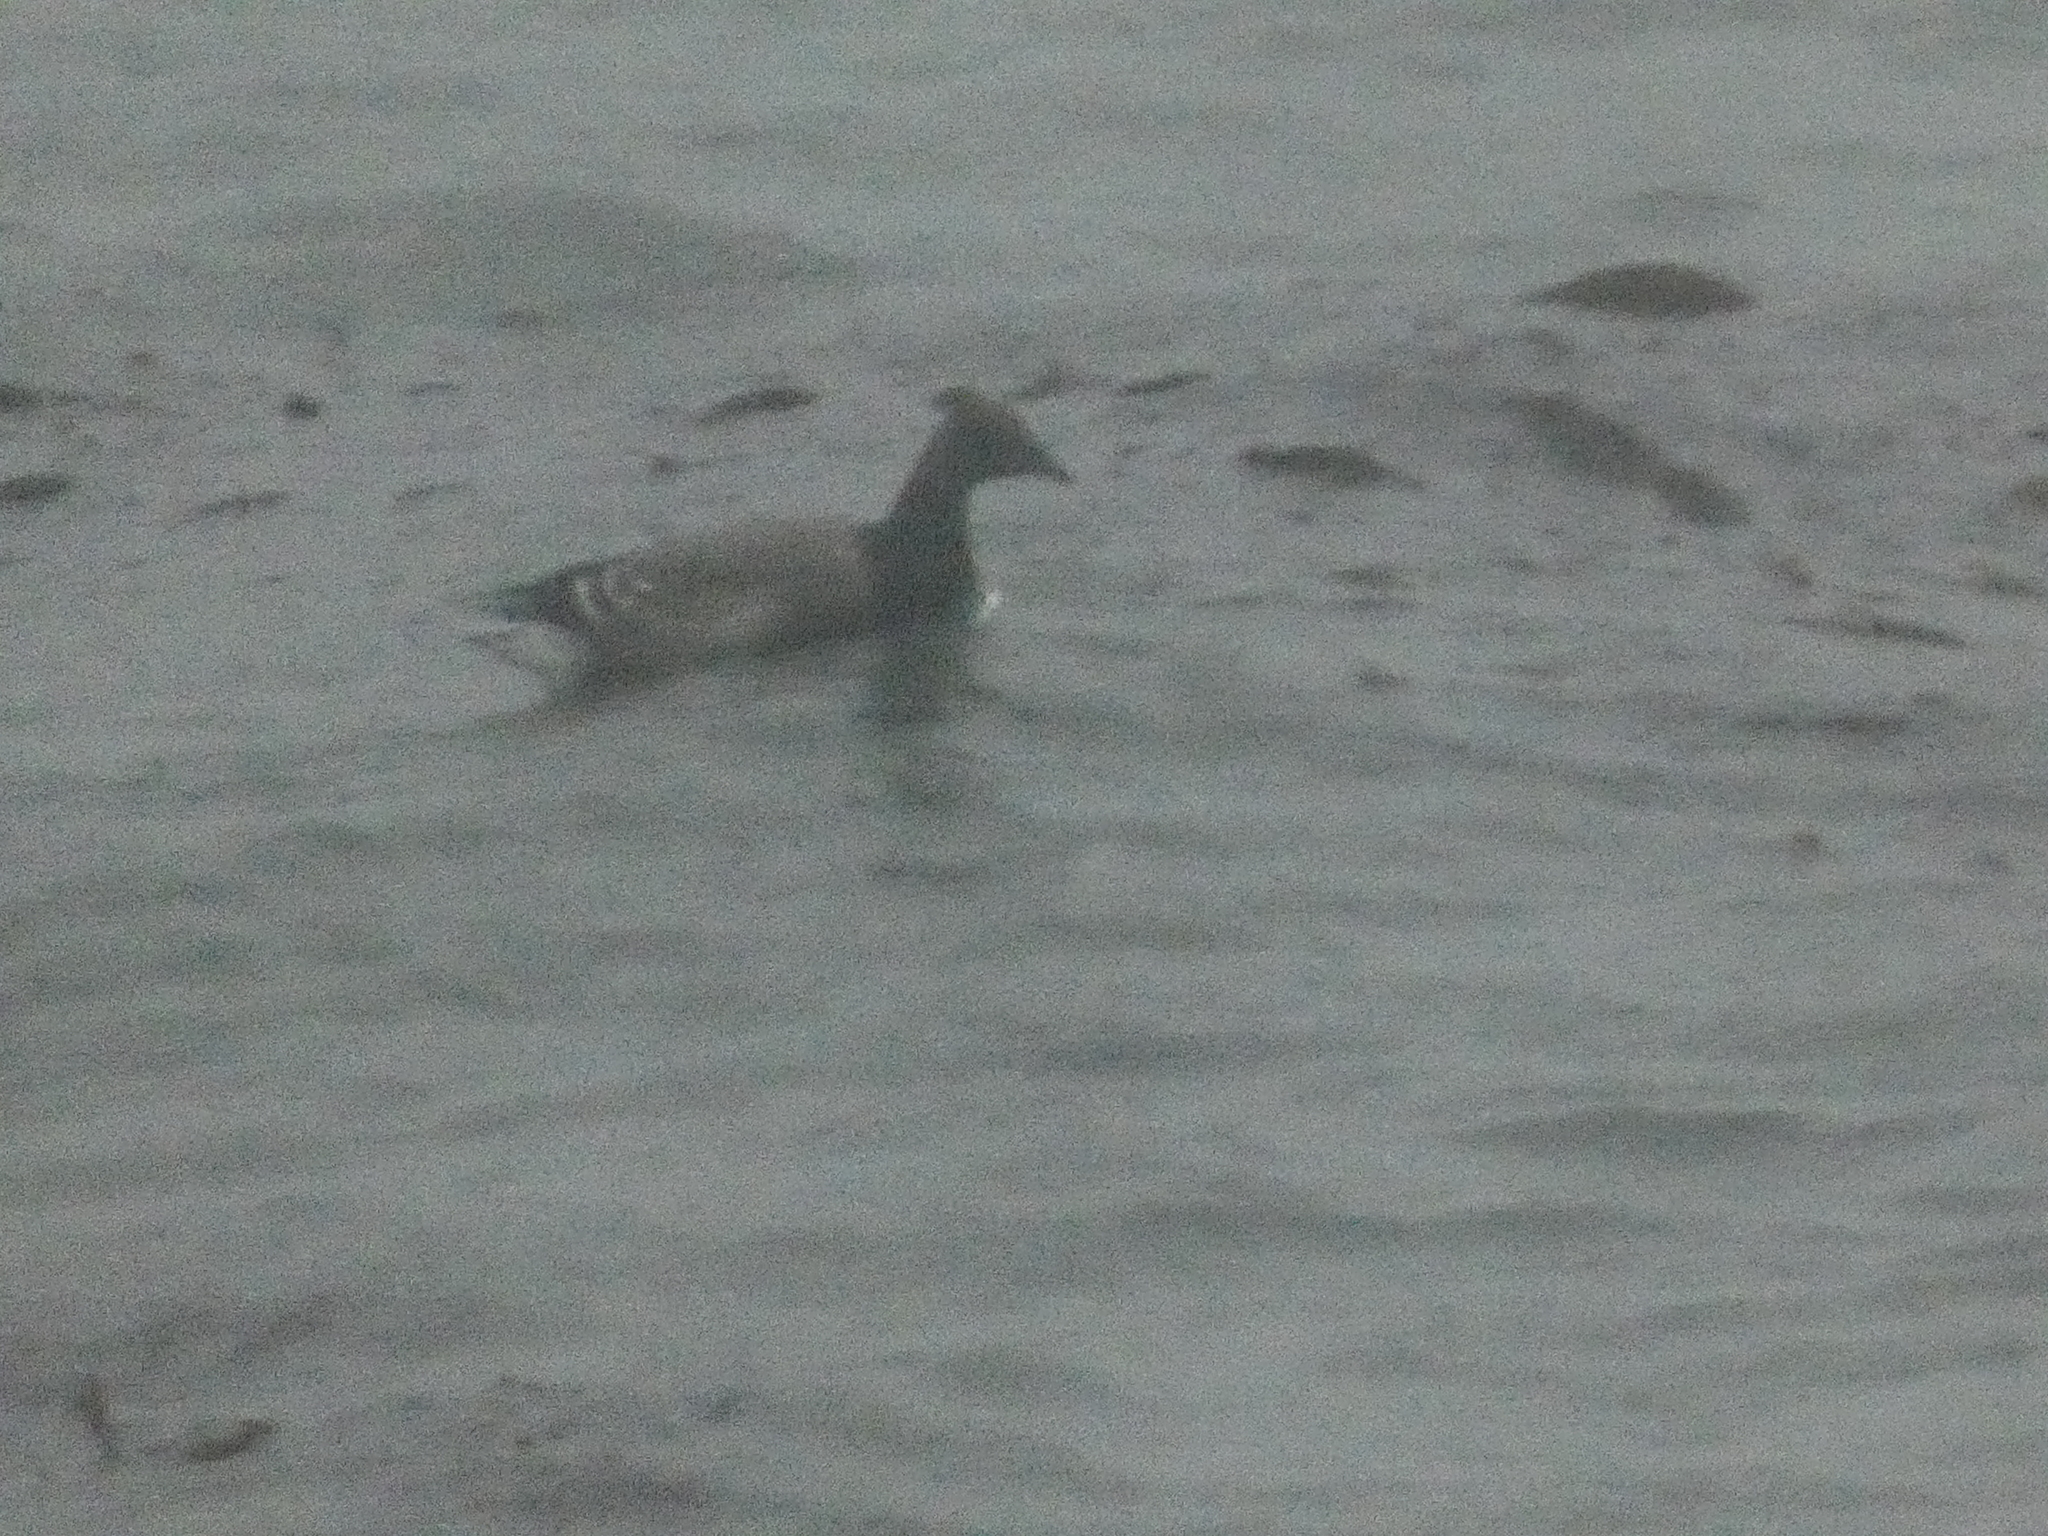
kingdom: Animalia
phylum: Chordata
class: Aves
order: Anseriformes
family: Anatidae
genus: Branta
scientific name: Branta bernicla
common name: Brant goose
